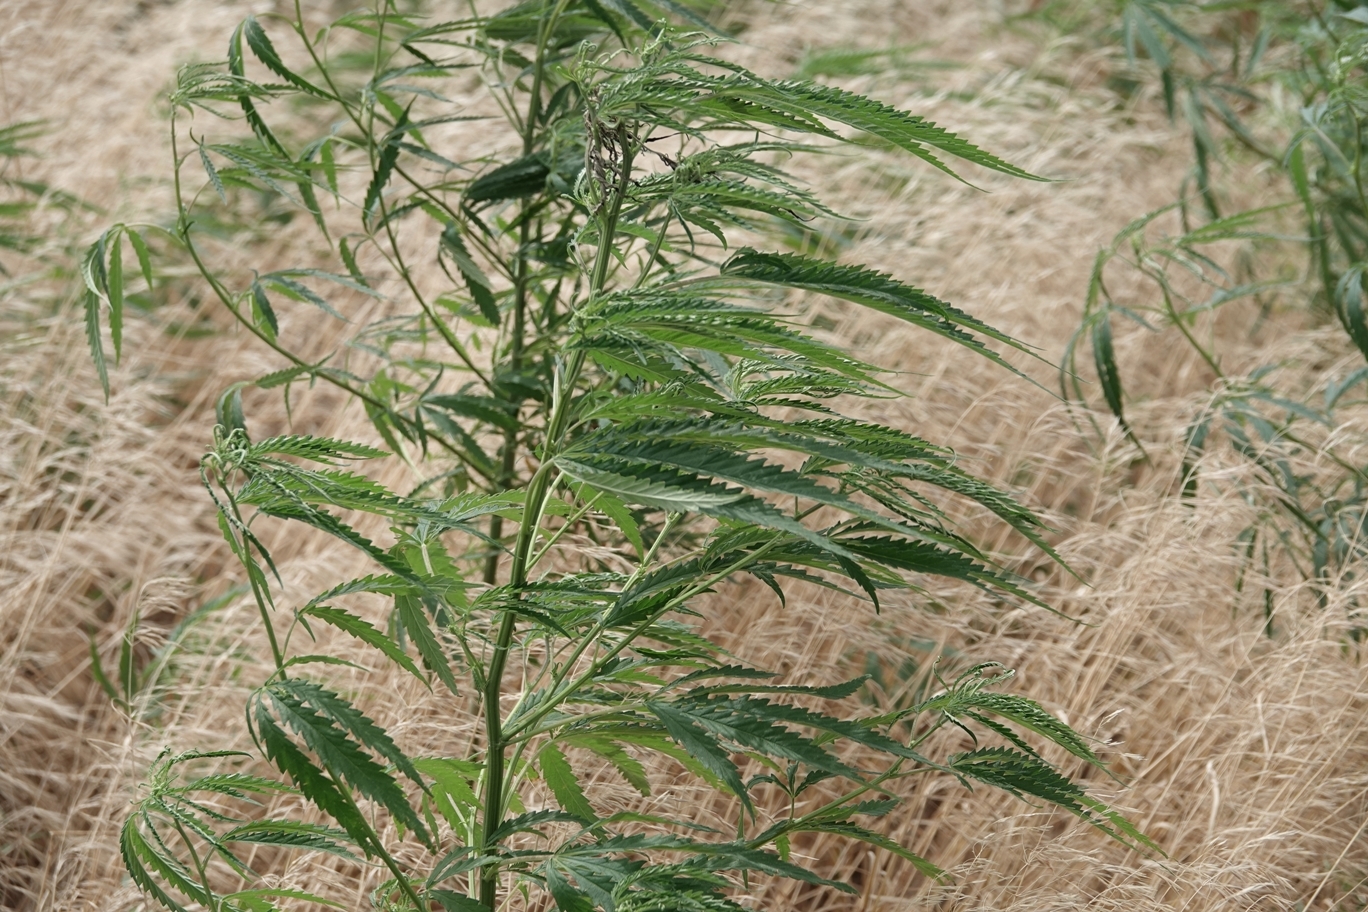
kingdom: Plantae
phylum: Tracheophyta
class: Magnoliopsida
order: Rosales
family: Cannabaceae
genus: Cannabis
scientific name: Cannabis sativa
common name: Hemp
